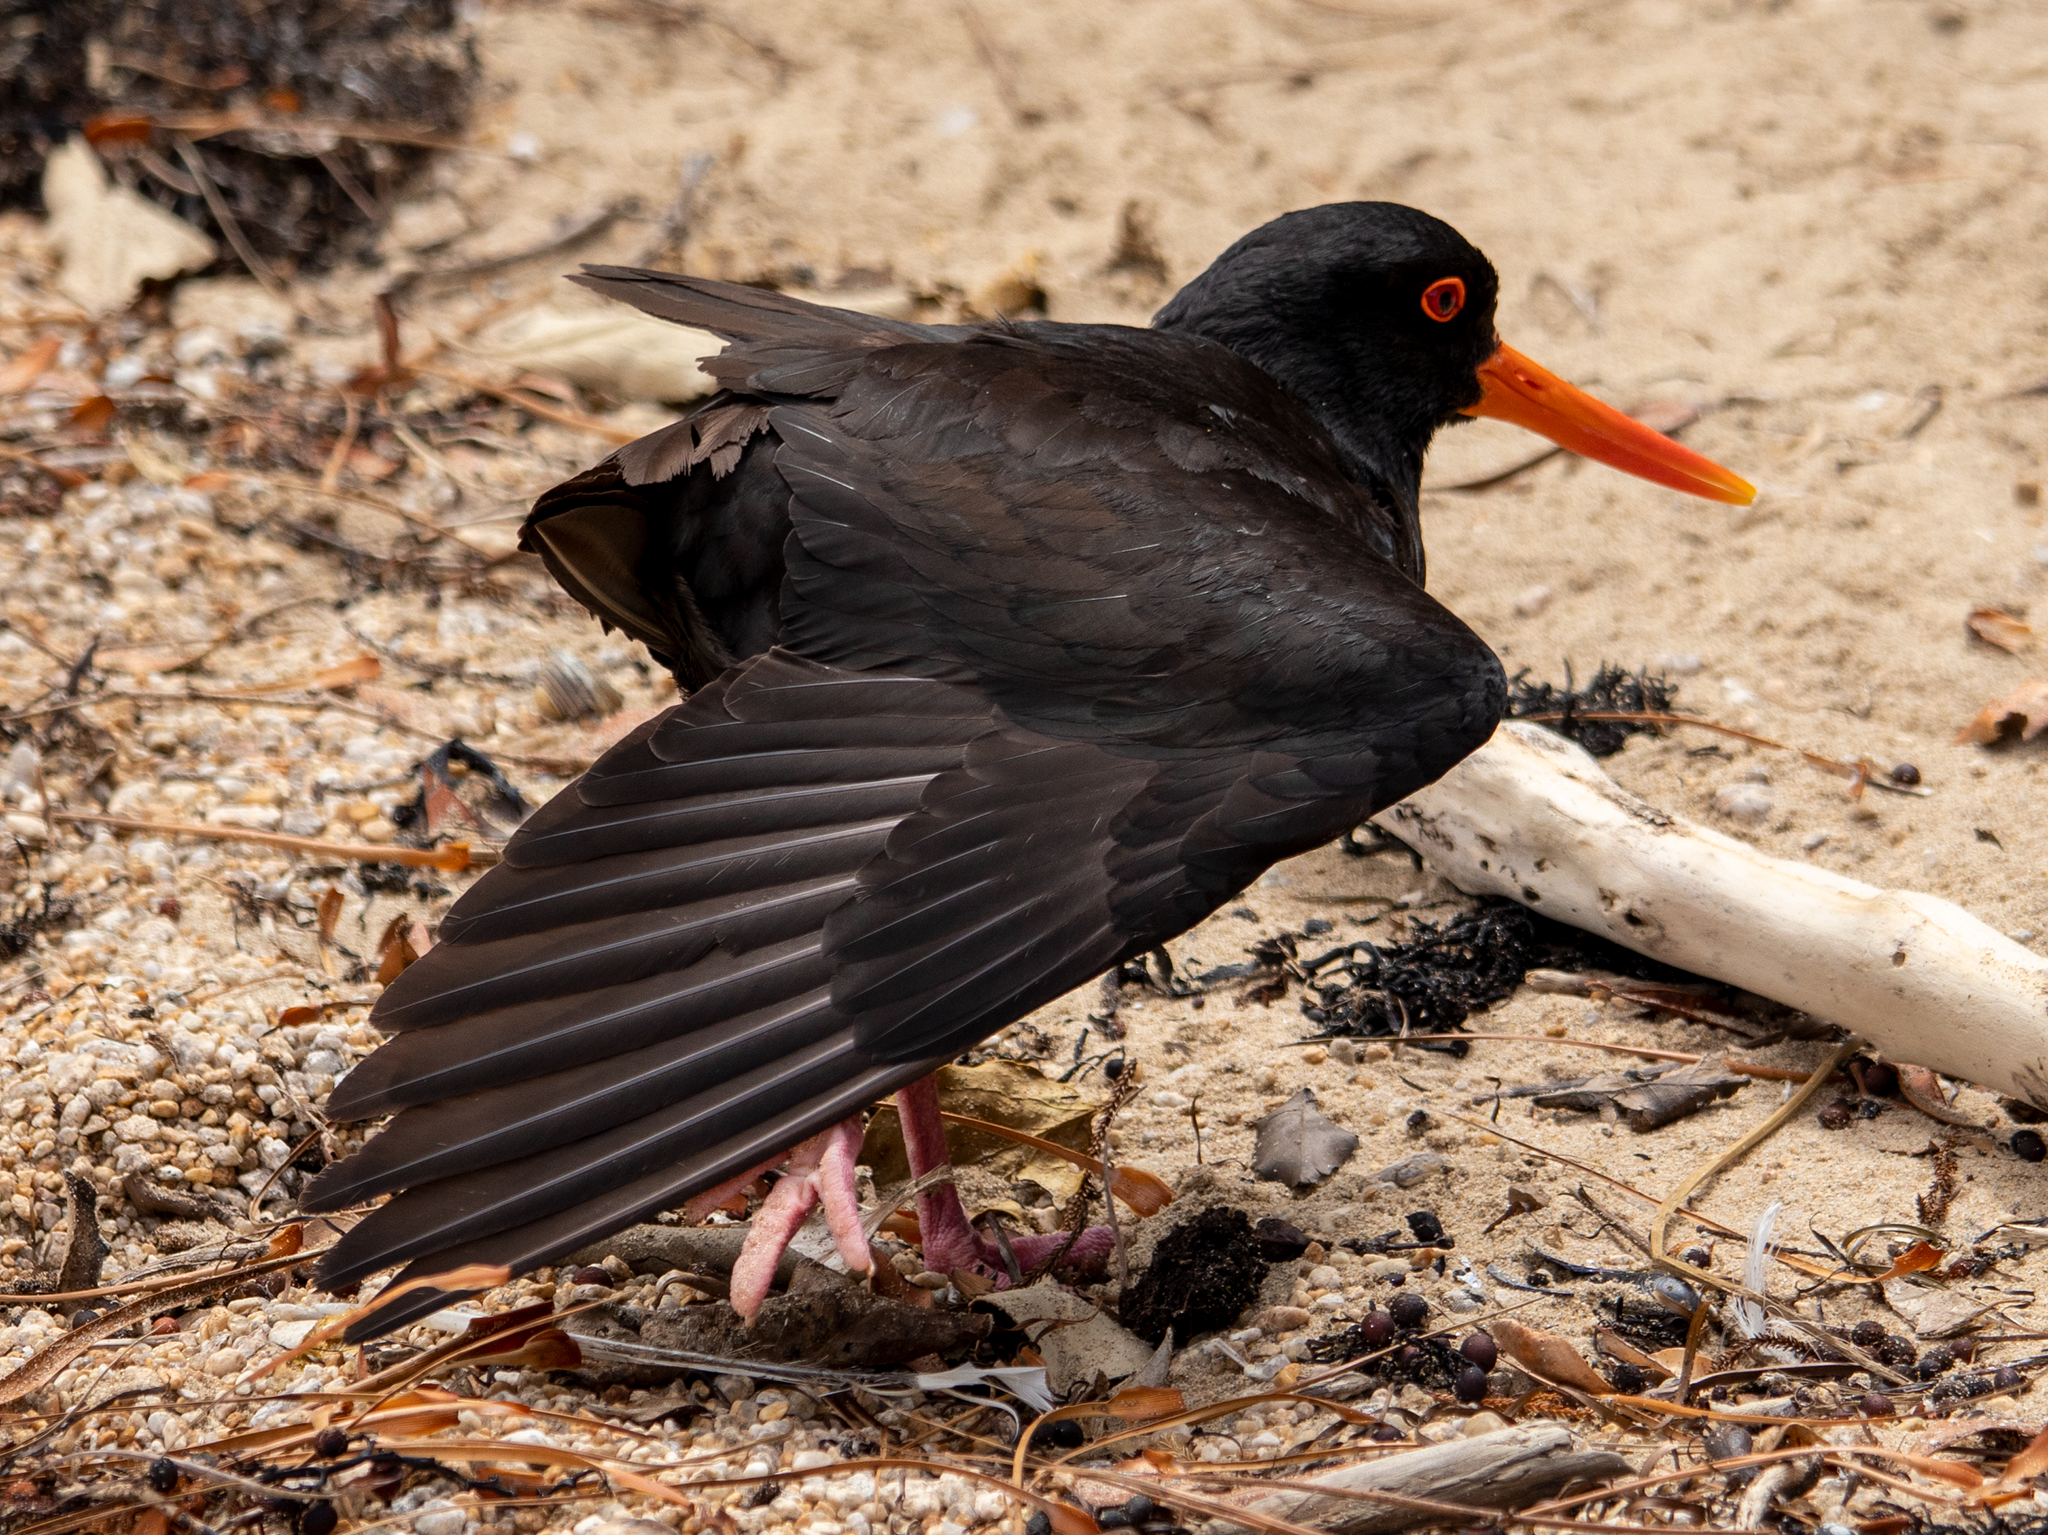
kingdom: Animalia
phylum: Chordata
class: Aves
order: Charadriiformes
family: Haematopodidae
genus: Haematopus
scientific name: Haematopus unicolor
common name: Variable oystercatcher
